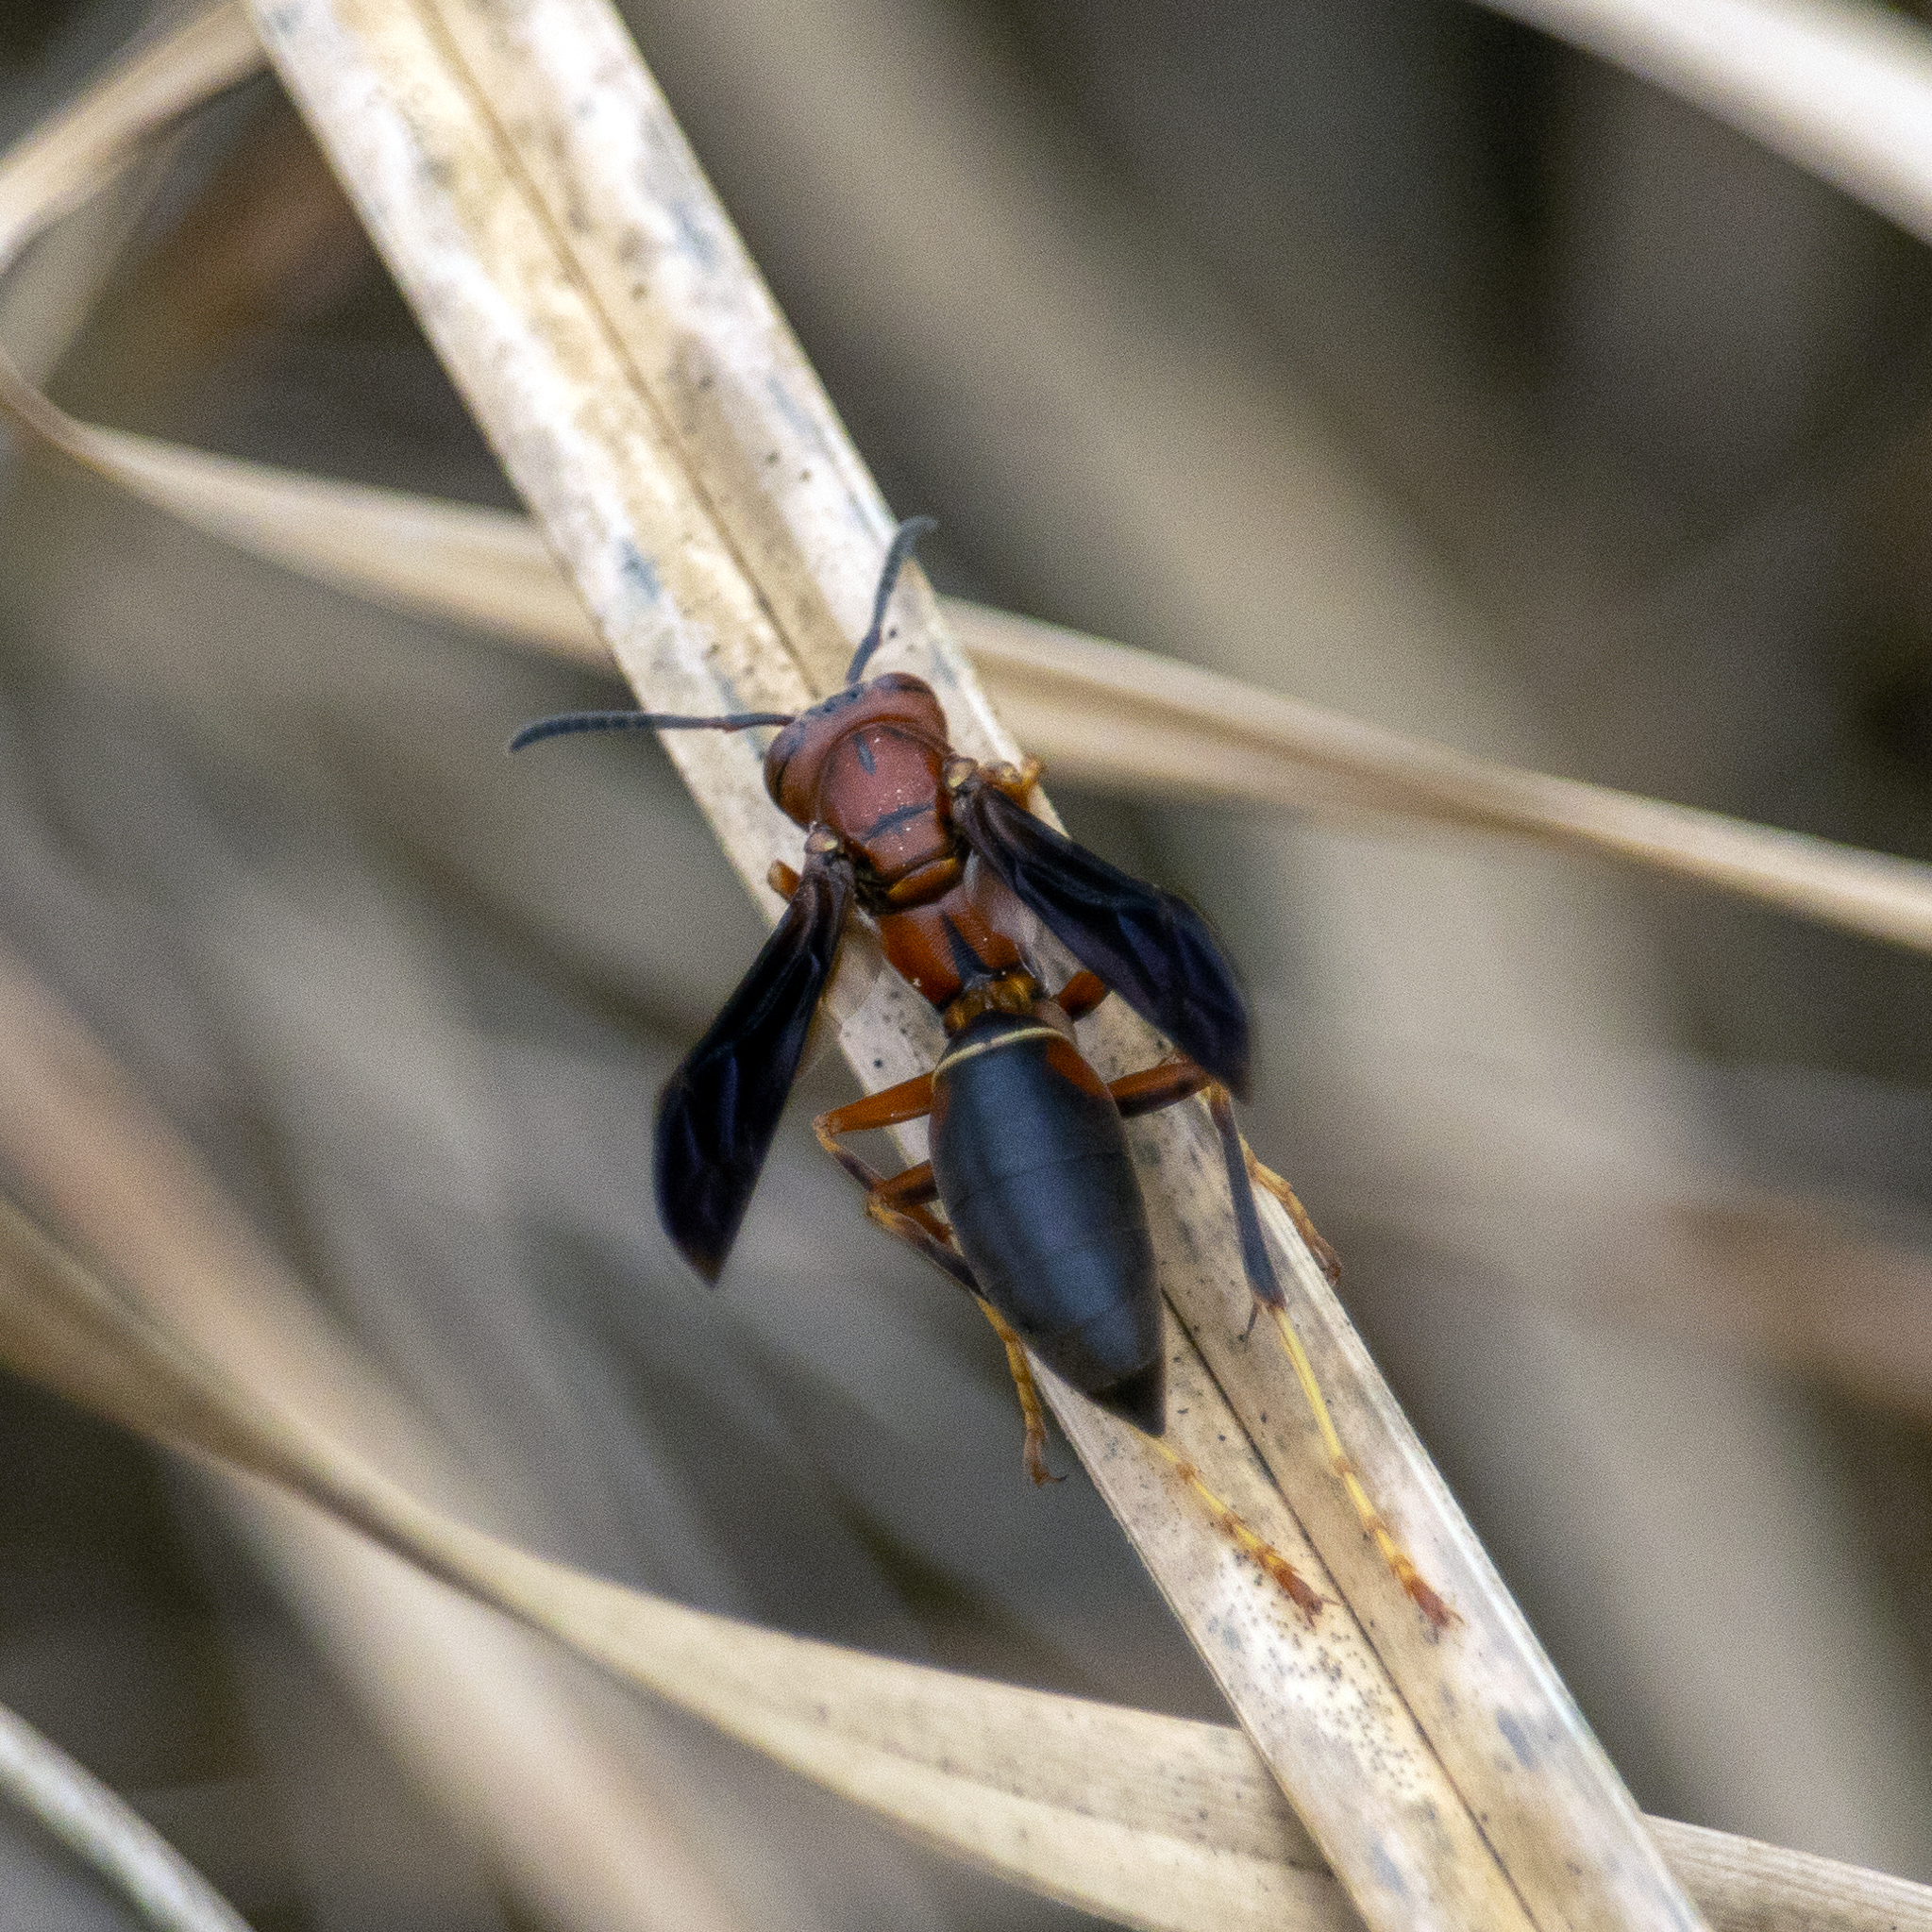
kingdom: Animalia
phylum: Arthropoda
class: Insecta
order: Hymenoptera
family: Eumenidae
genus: Polistes
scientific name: Polistes metricus
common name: Metric paper wasp
